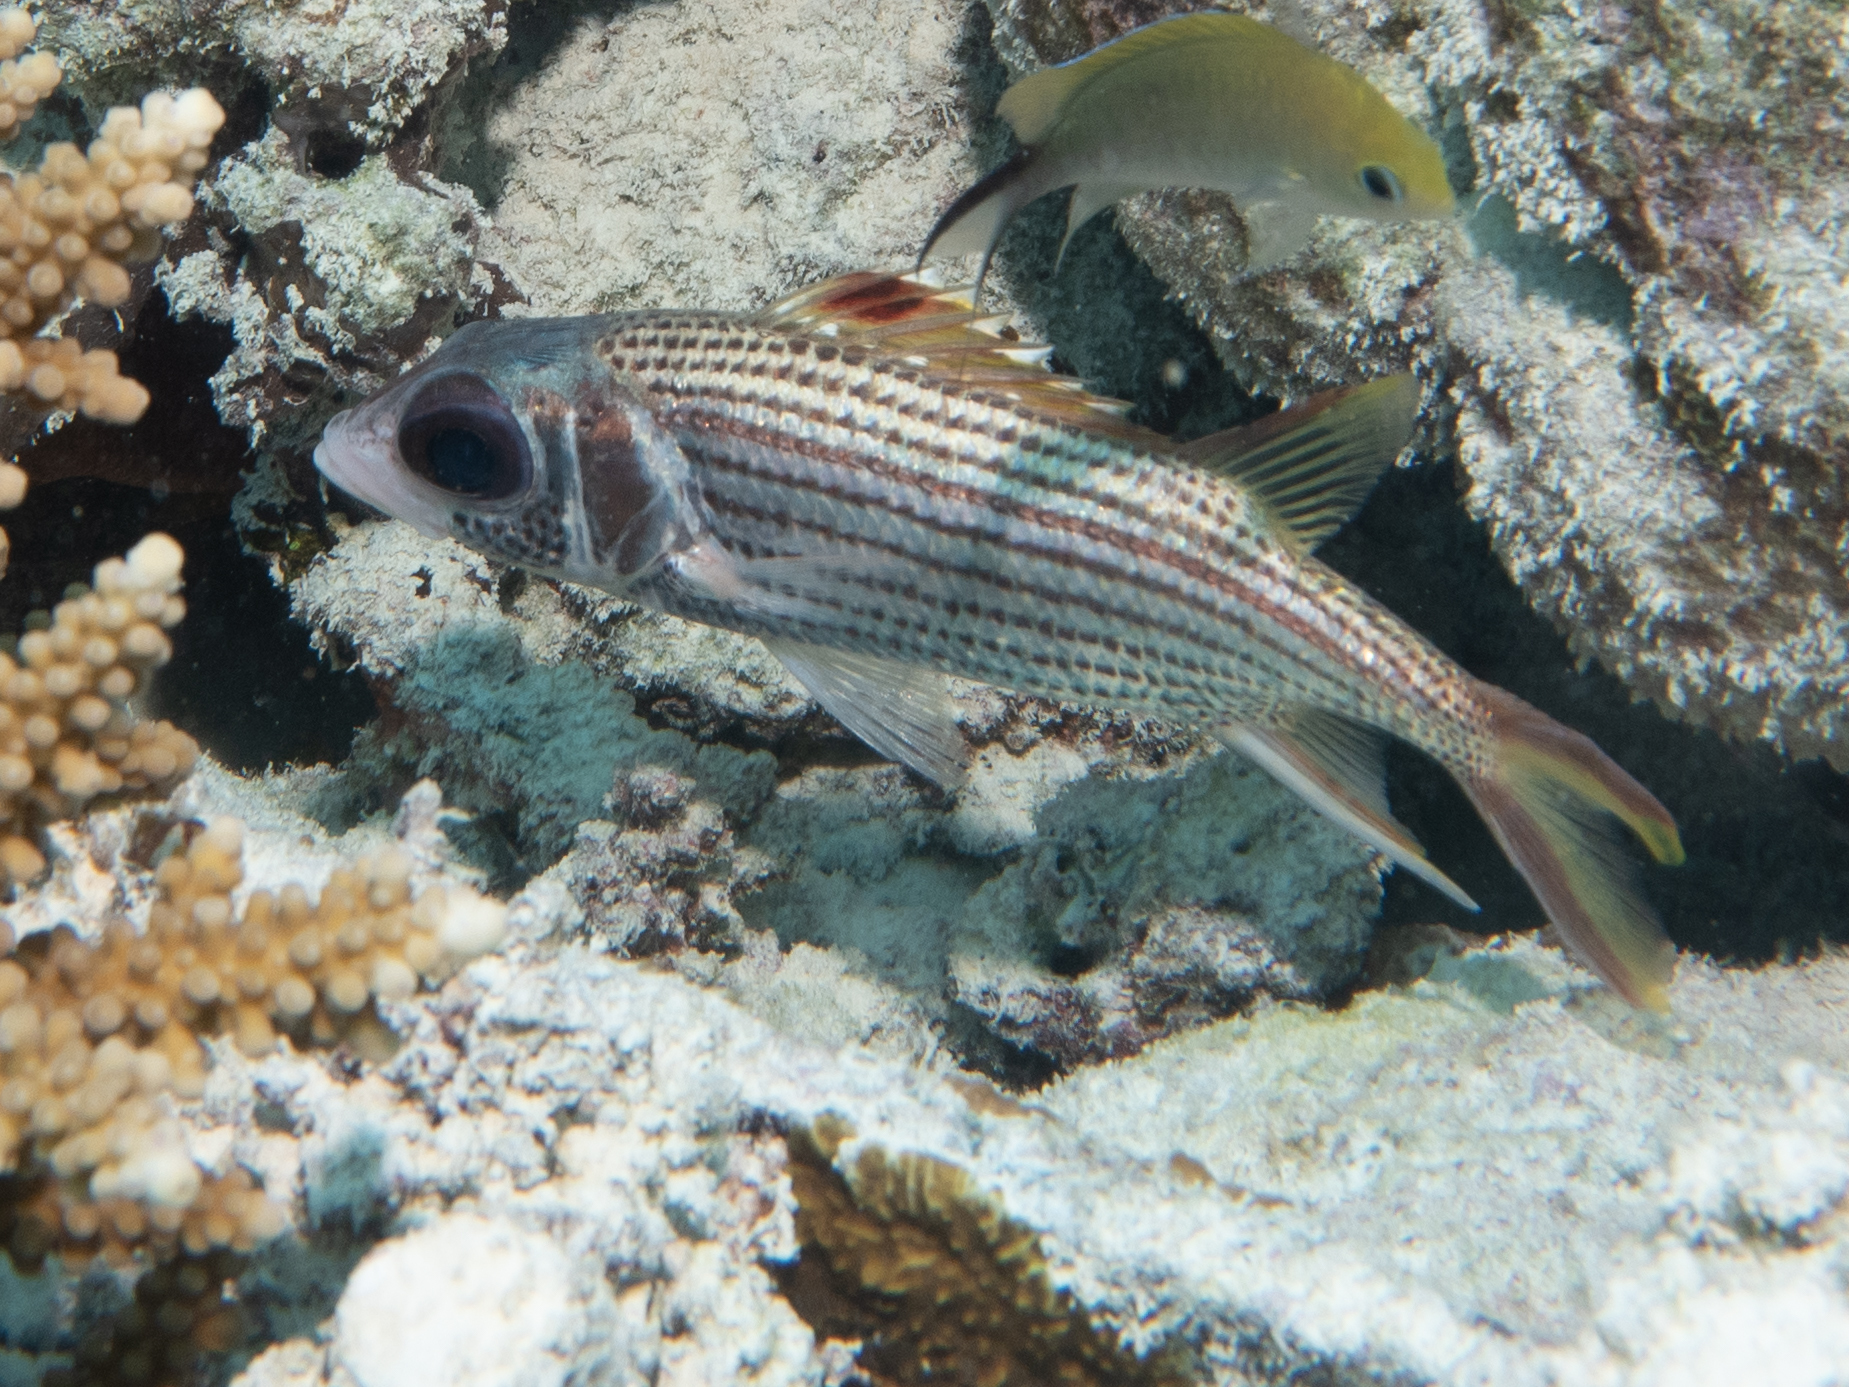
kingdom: Animalia
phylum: Chordata
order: Beryciformes
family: Holocentridae
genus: Neoniphon
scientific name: Neoniphon sammara
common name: Sammara squirrelfish
